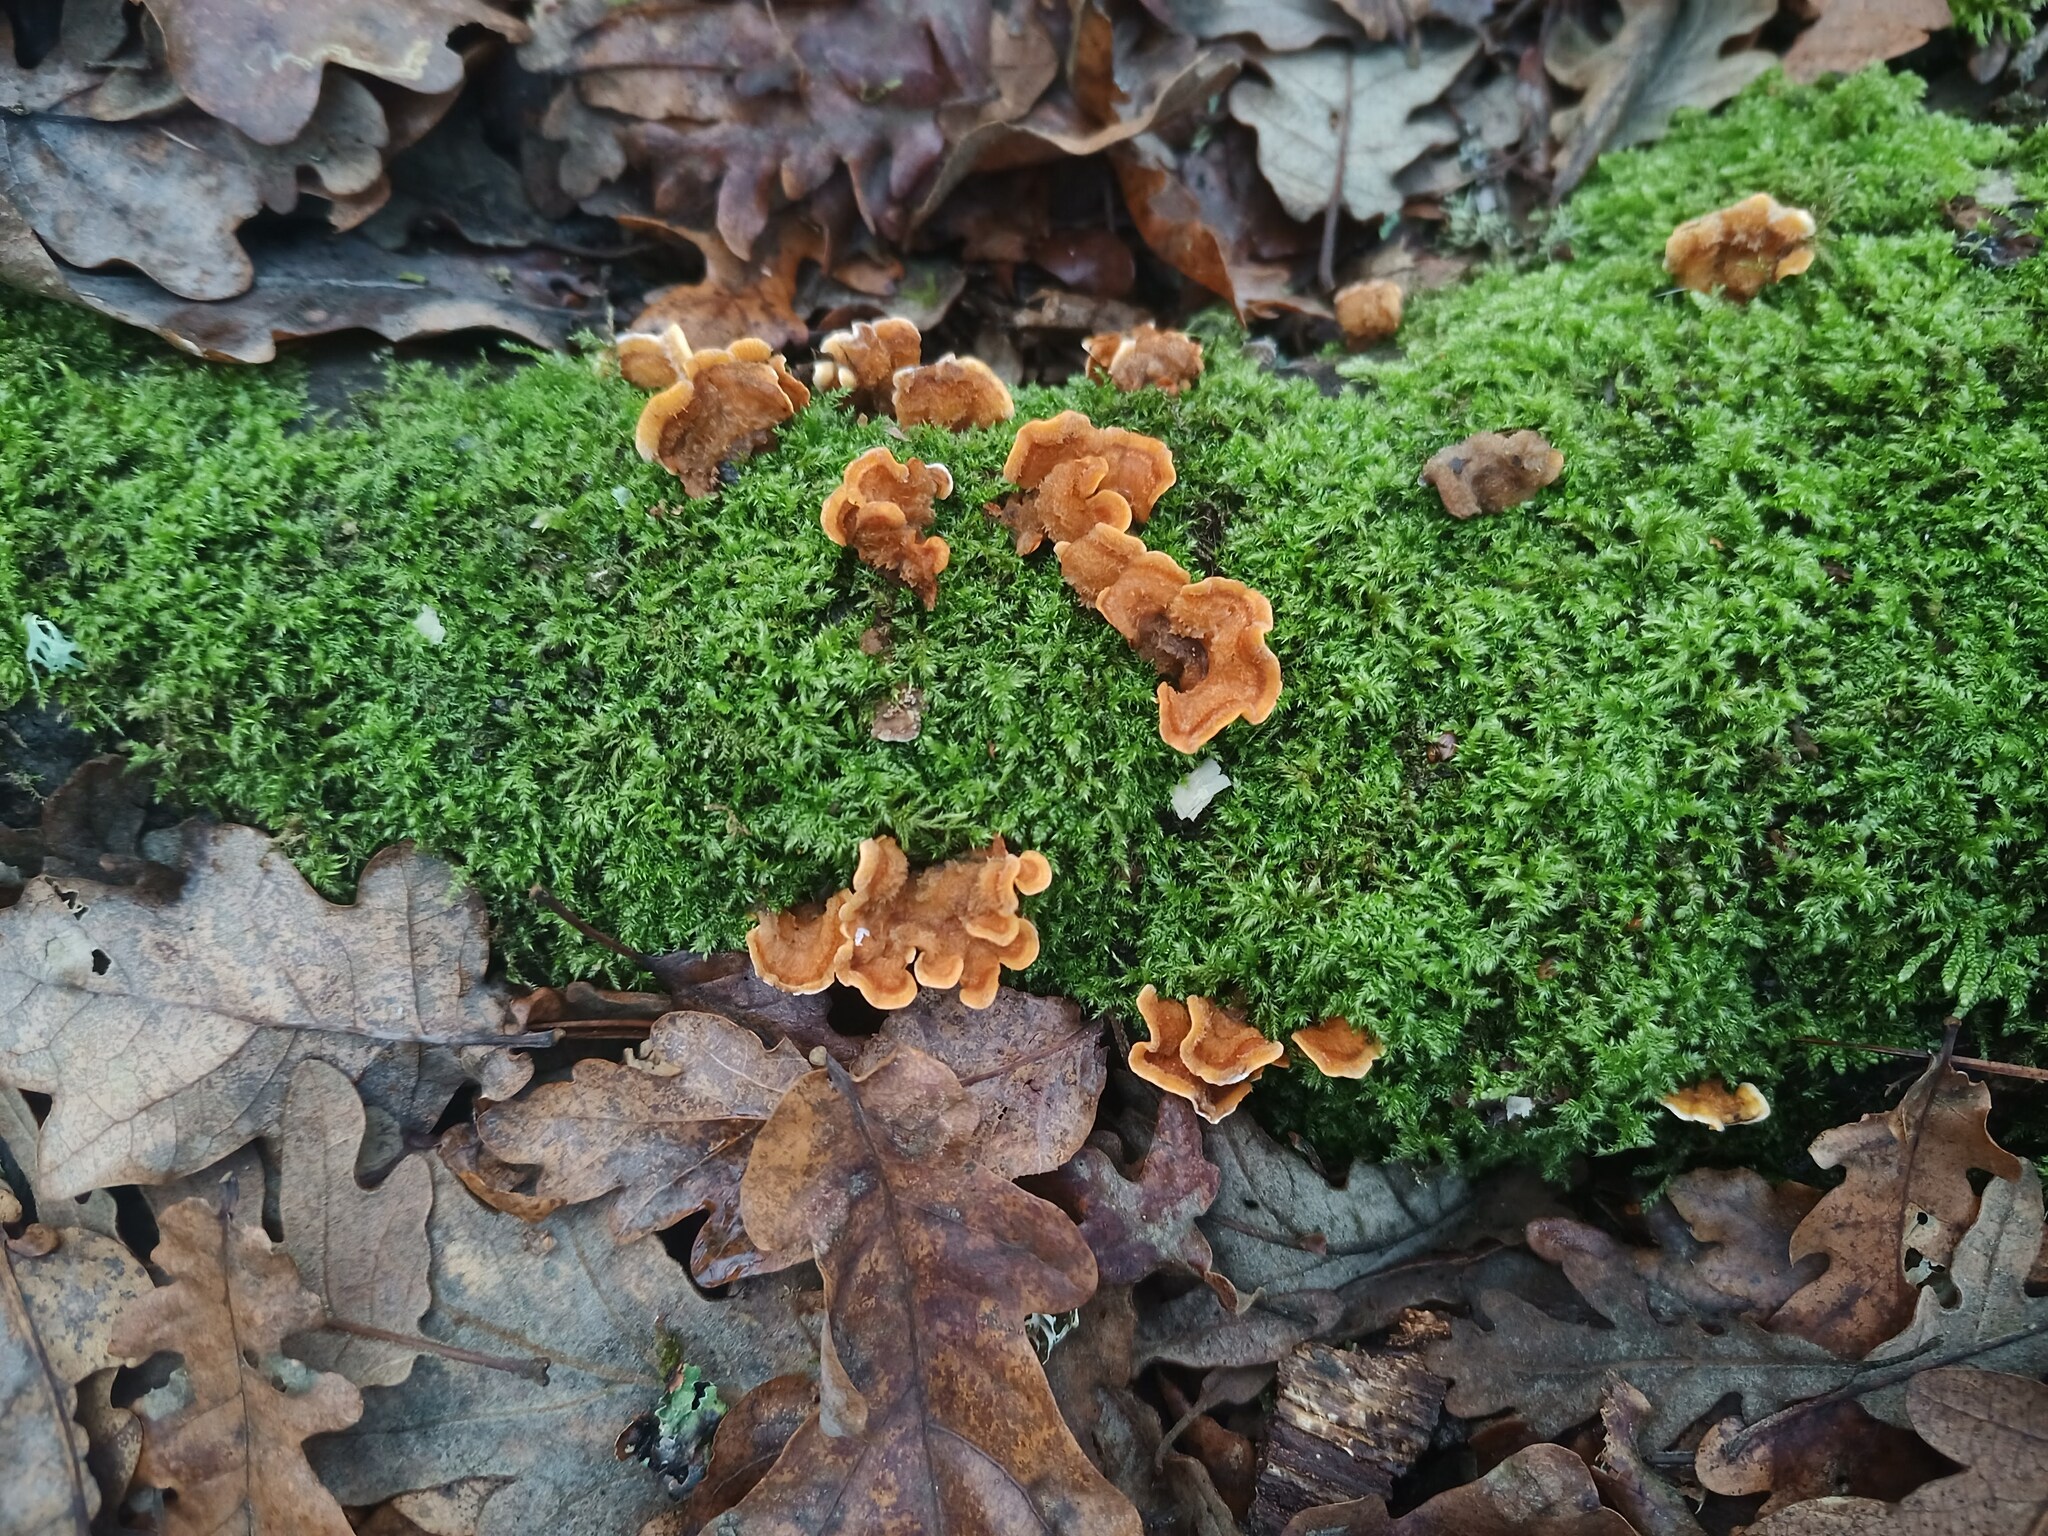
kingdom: Fungi
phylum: Basidiomycota
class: Agaricomycetes
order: Russulales
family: Stereaceae
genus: Stereum
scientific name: Stereum hirsutum
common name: Hairy curtain crust
